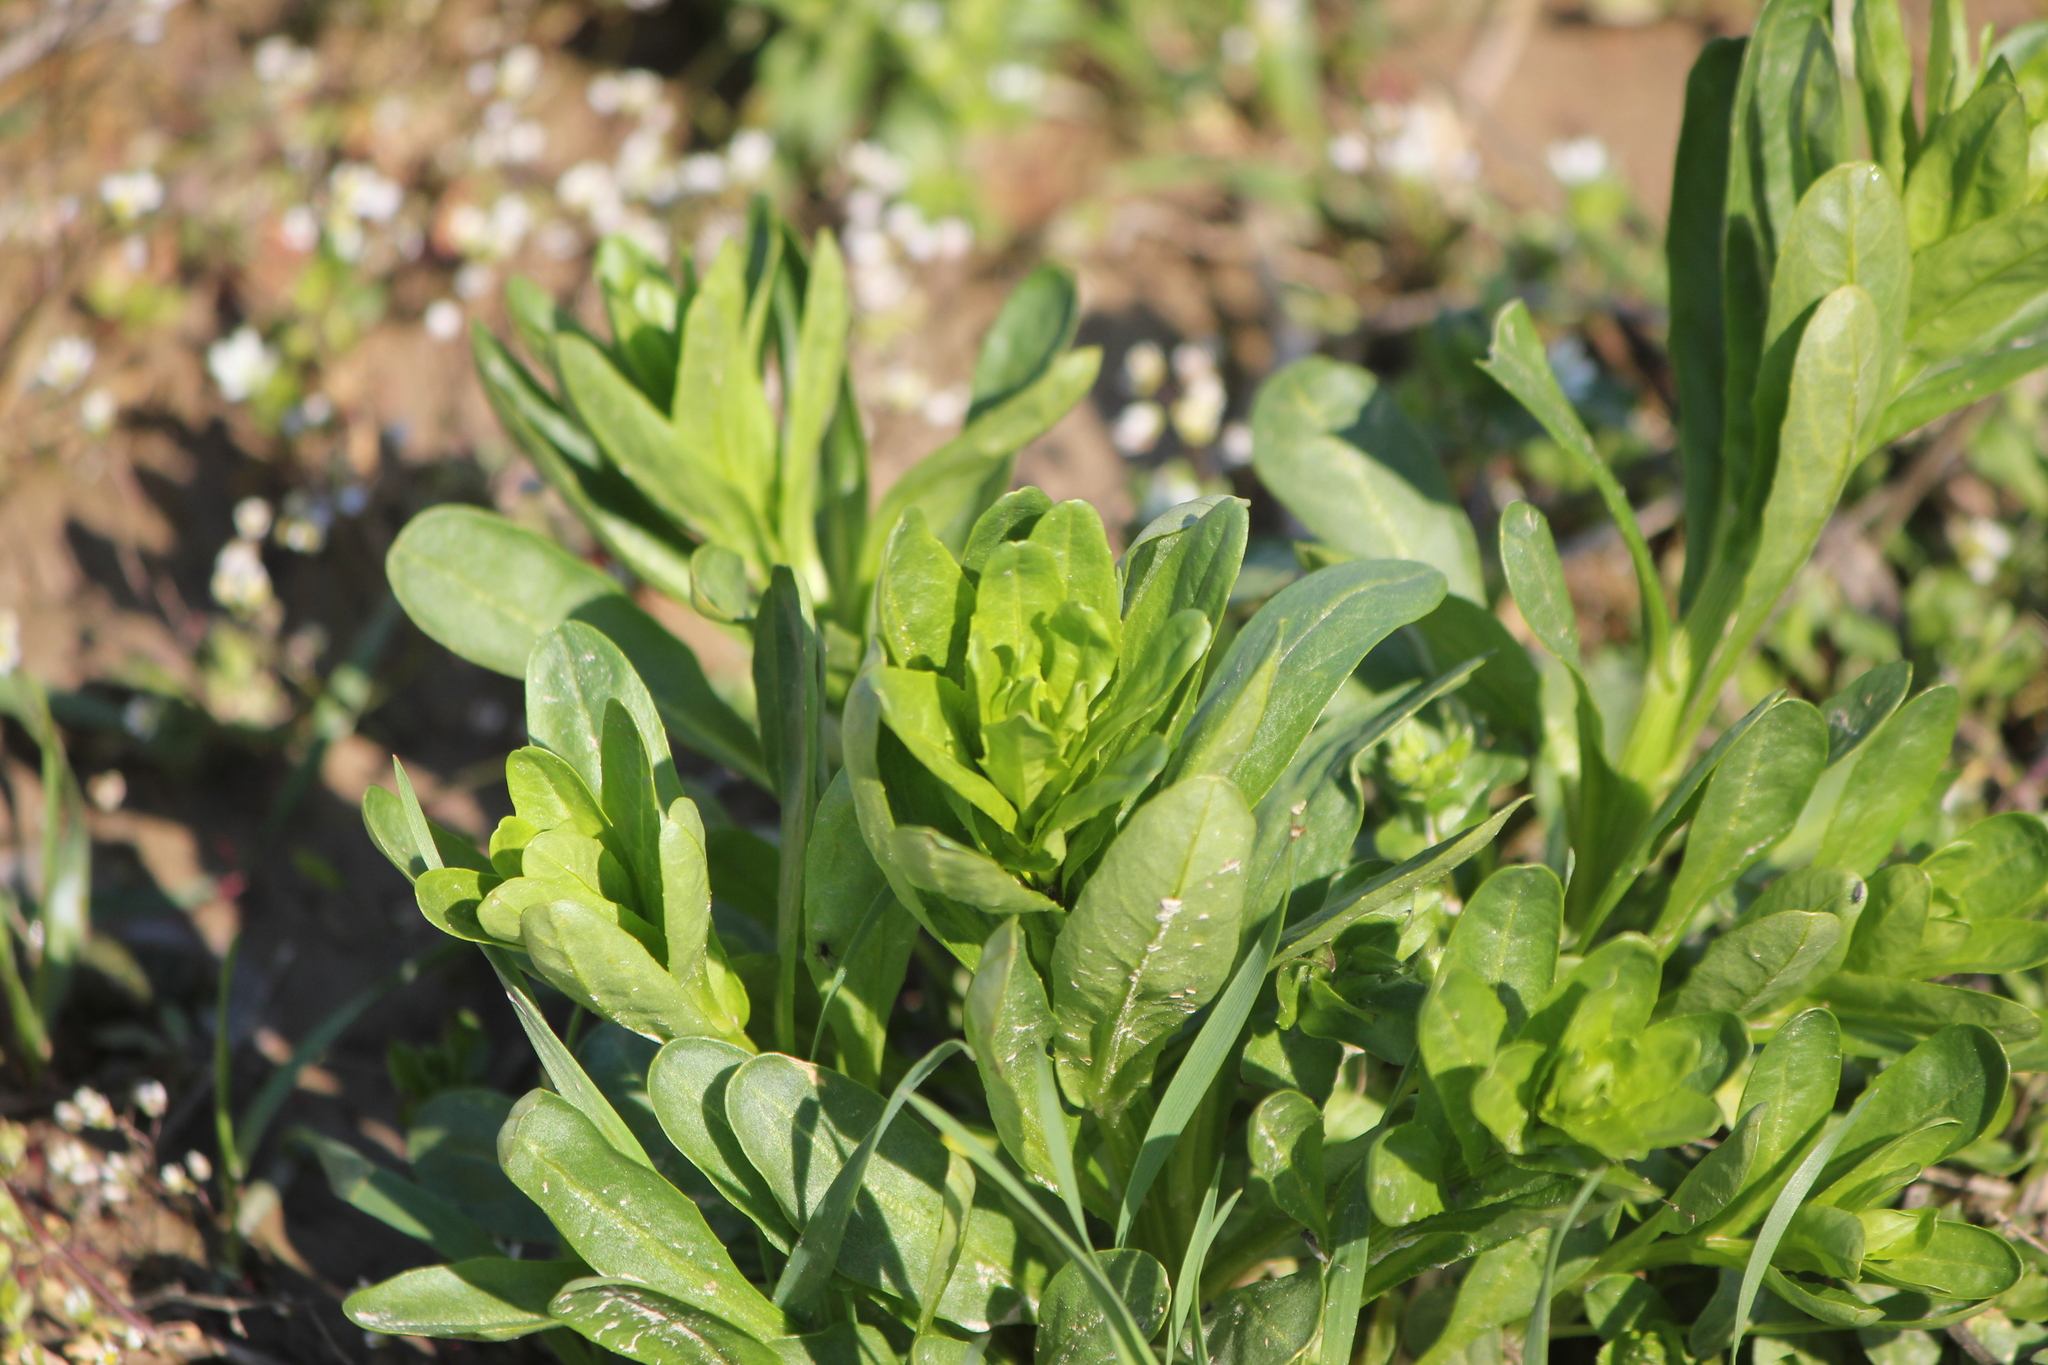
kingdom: Plantae
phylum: Tracheophyta
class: Magnoliopsida
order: Brassicales
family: Brassicaceae
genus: Thlaspi
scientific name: Thlaspi arvense
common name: Field pennycress
